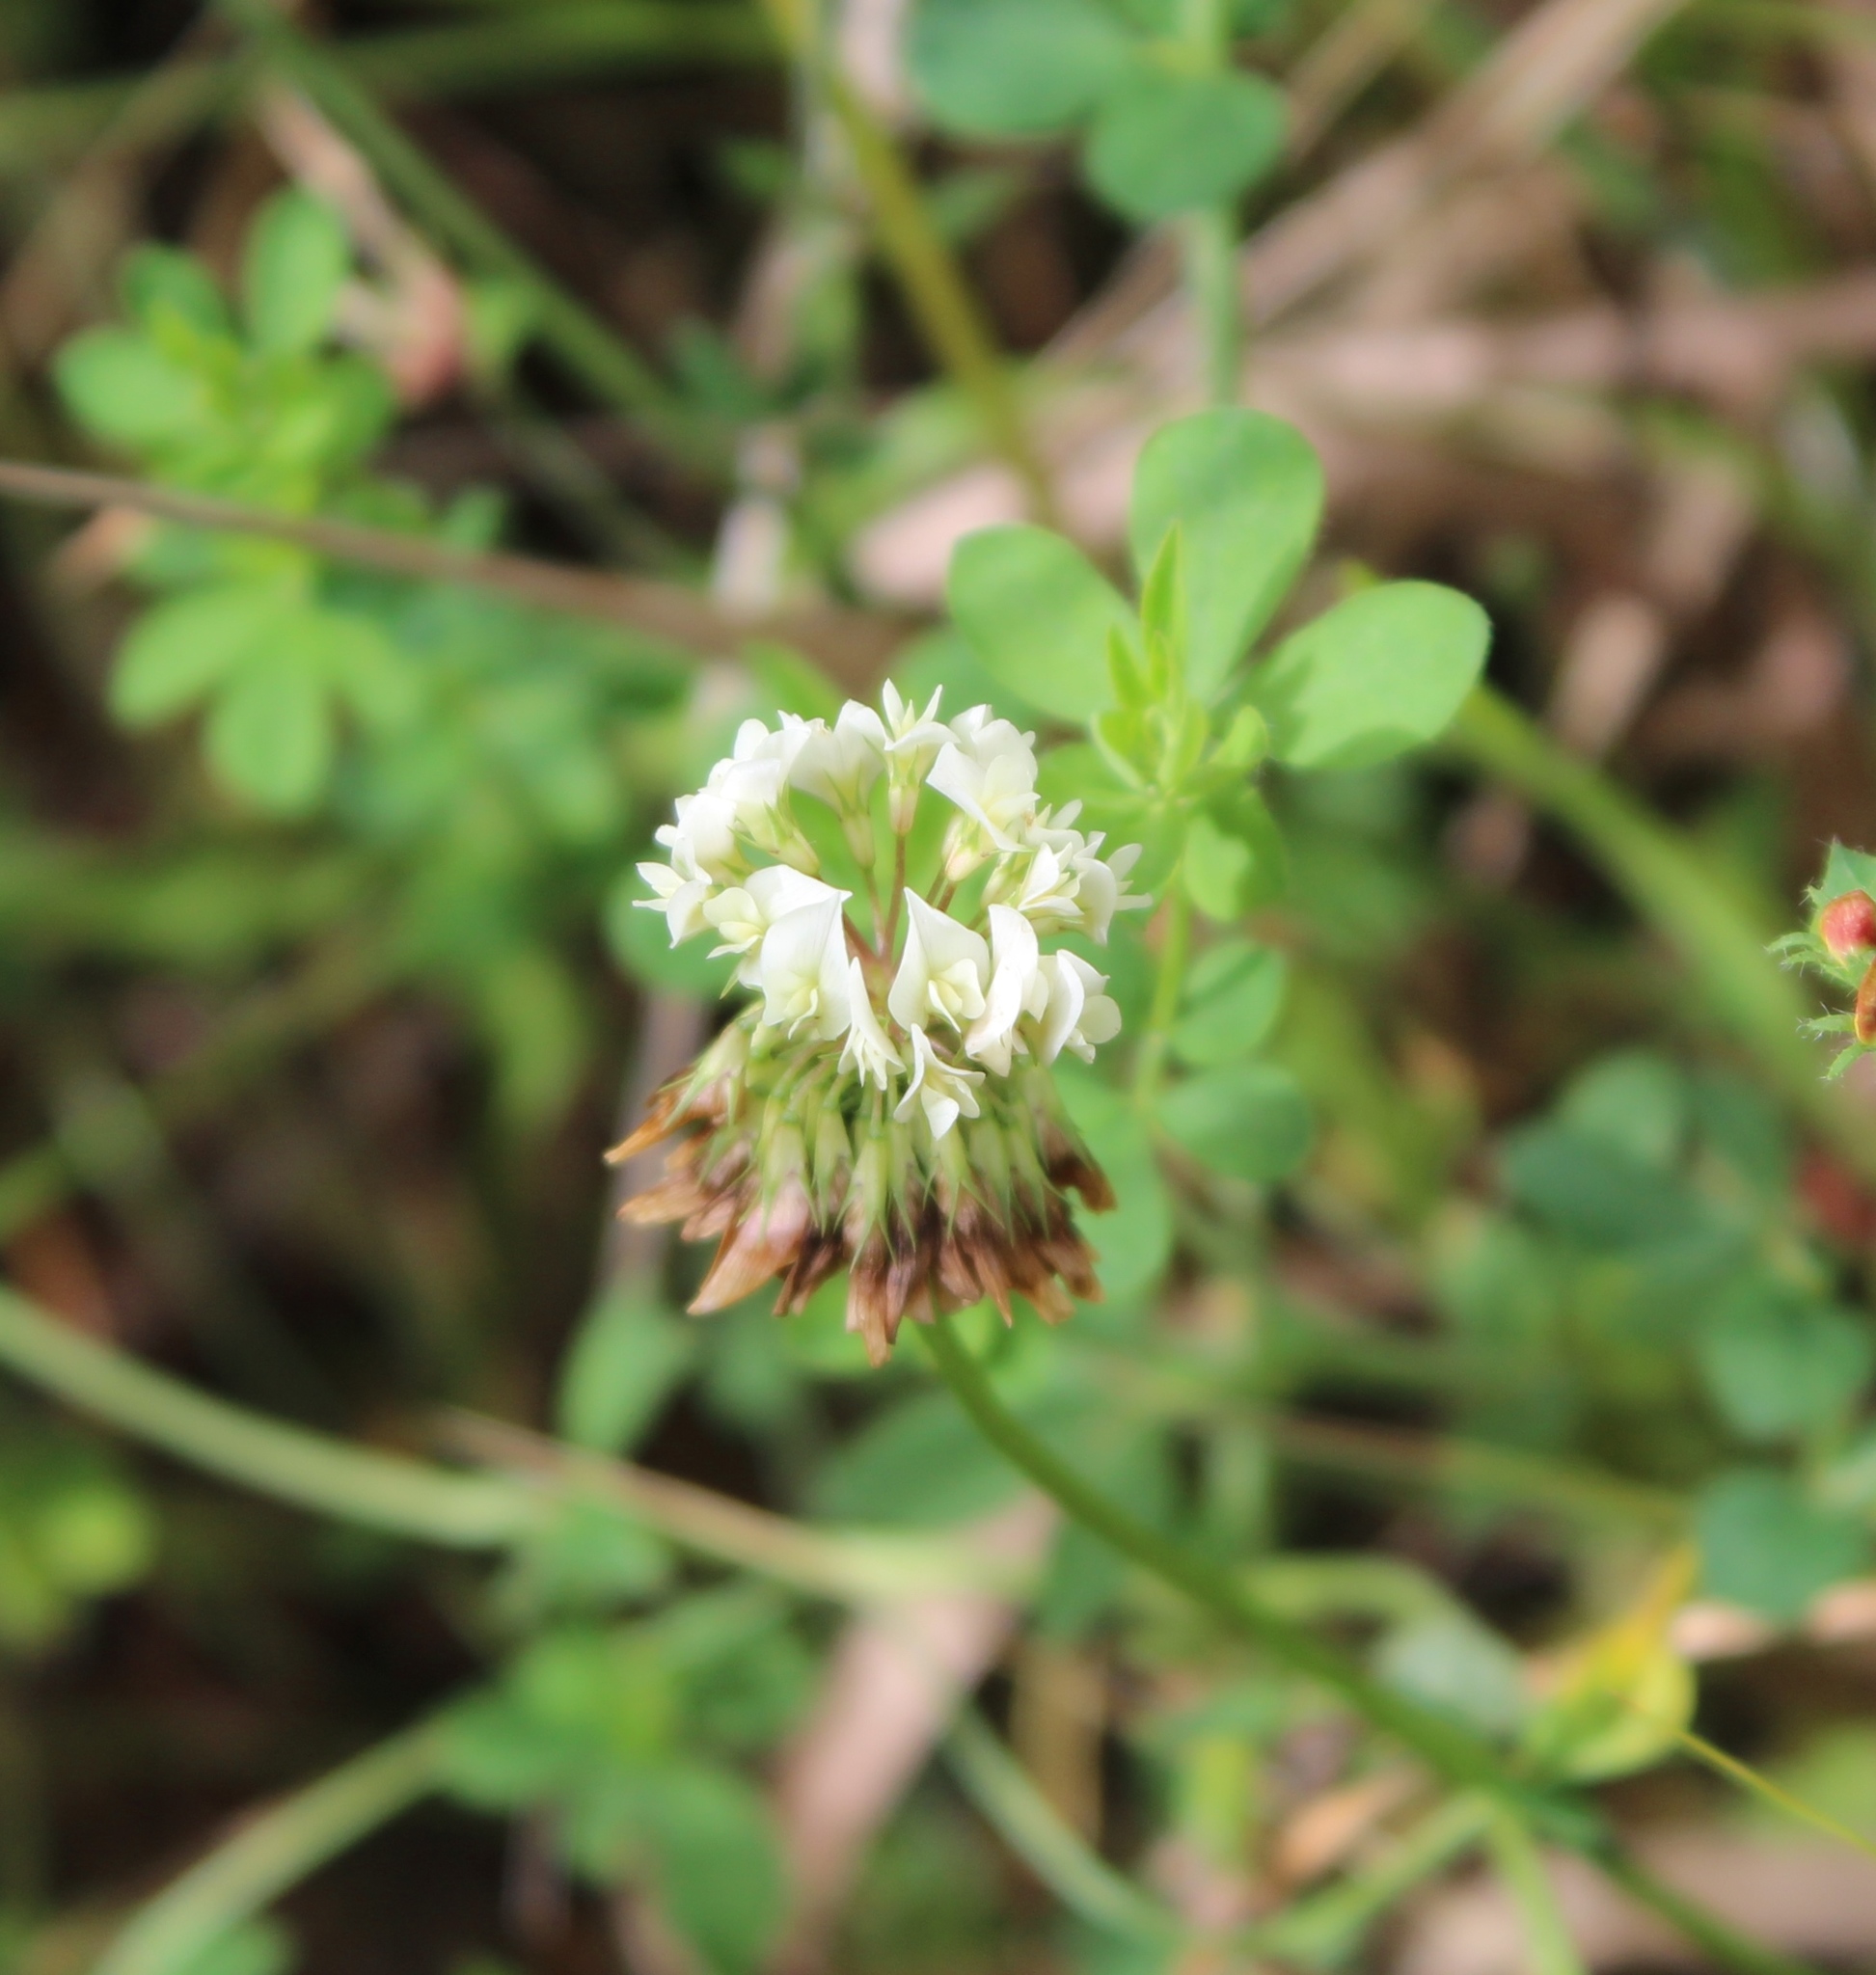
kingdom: Plantae
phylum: Tracheophyta
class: Magnoliopsida
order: Fabales
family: Fabaceae
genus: Trifolium
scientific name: Trifolium repens
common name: White clover
